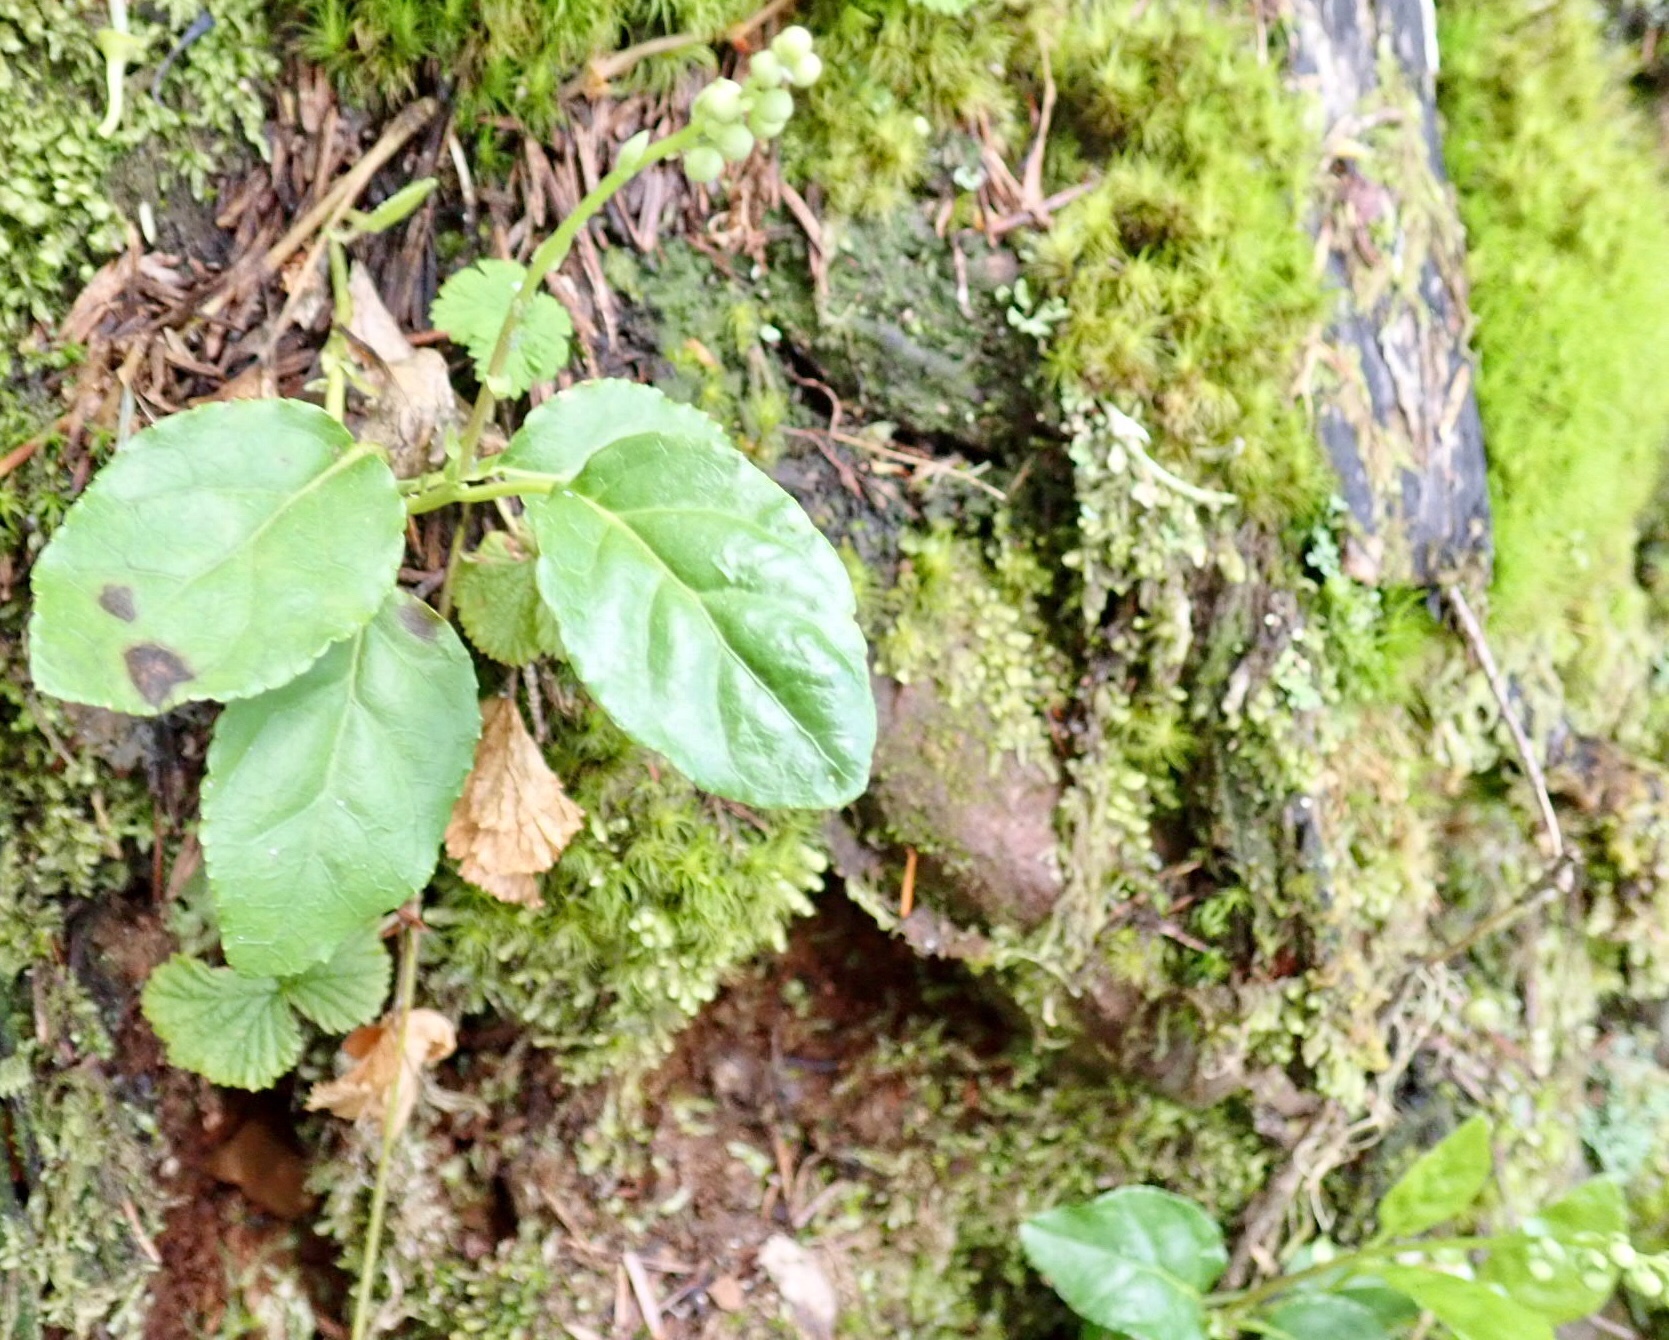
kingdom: Plantae
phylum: Tracheophyta
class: Magnoliopsida
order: Ericales
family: Ericaceae
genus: Orthilia
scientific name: Orthilia secunda
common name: One-sided orthilia
